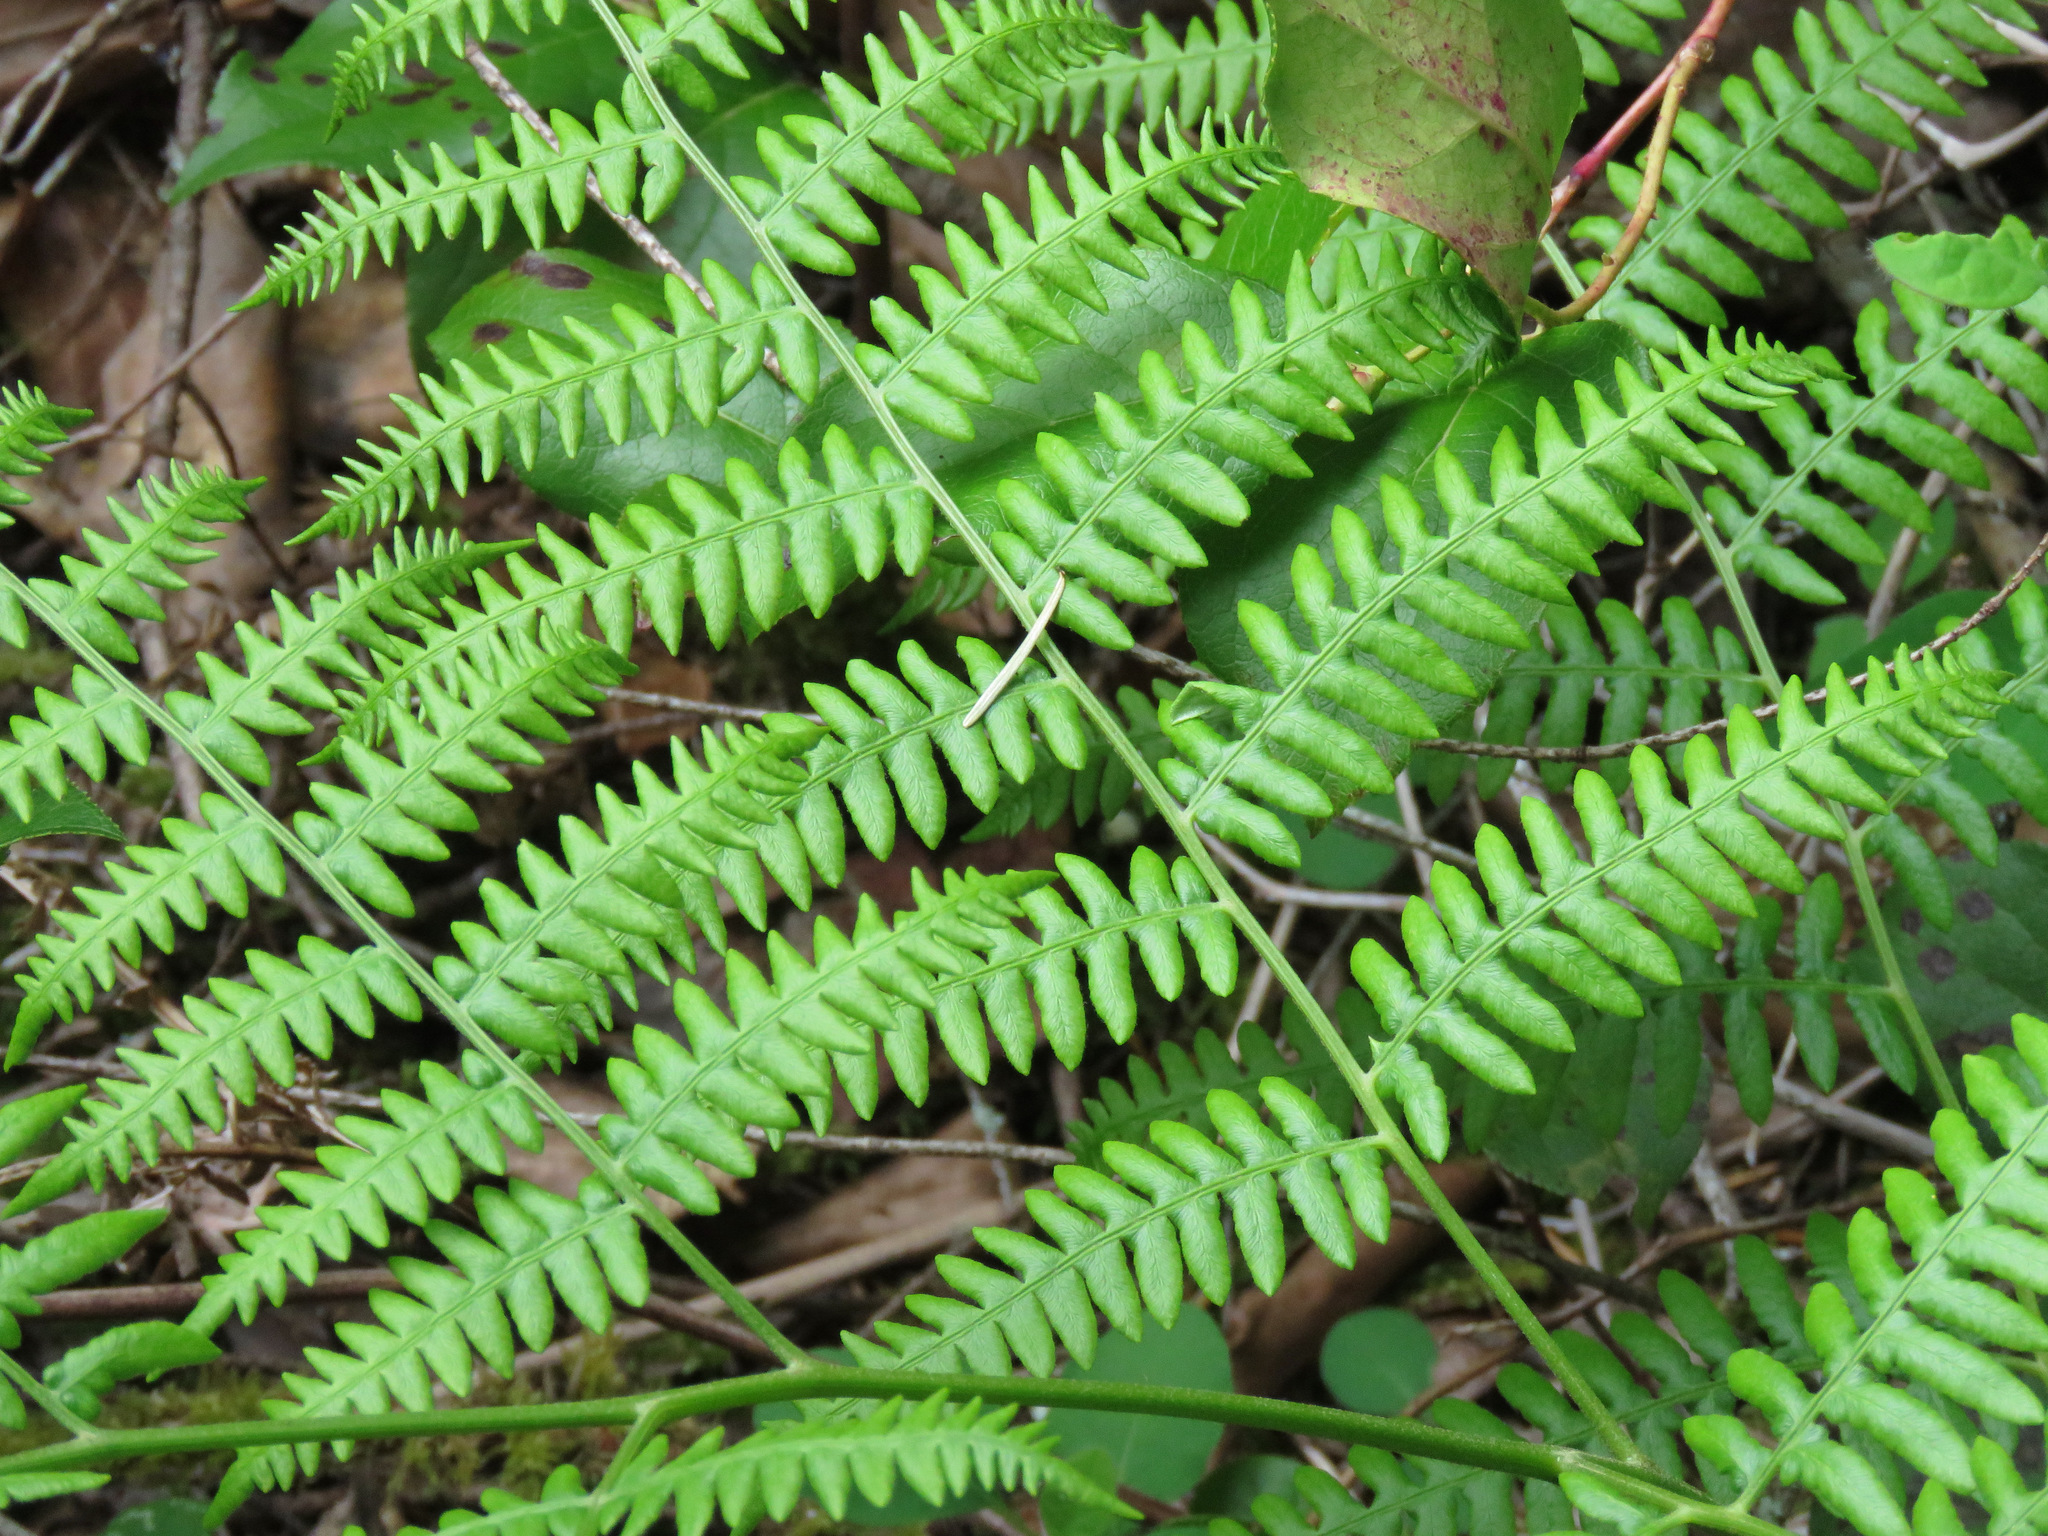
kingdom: Plantae
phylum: Tracheophyta
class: Polypodiopsida
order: Polypodiales
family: Dennstaedtiaceae
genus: Pteridium
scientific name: Pteridium aquilinum
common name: Bracken
